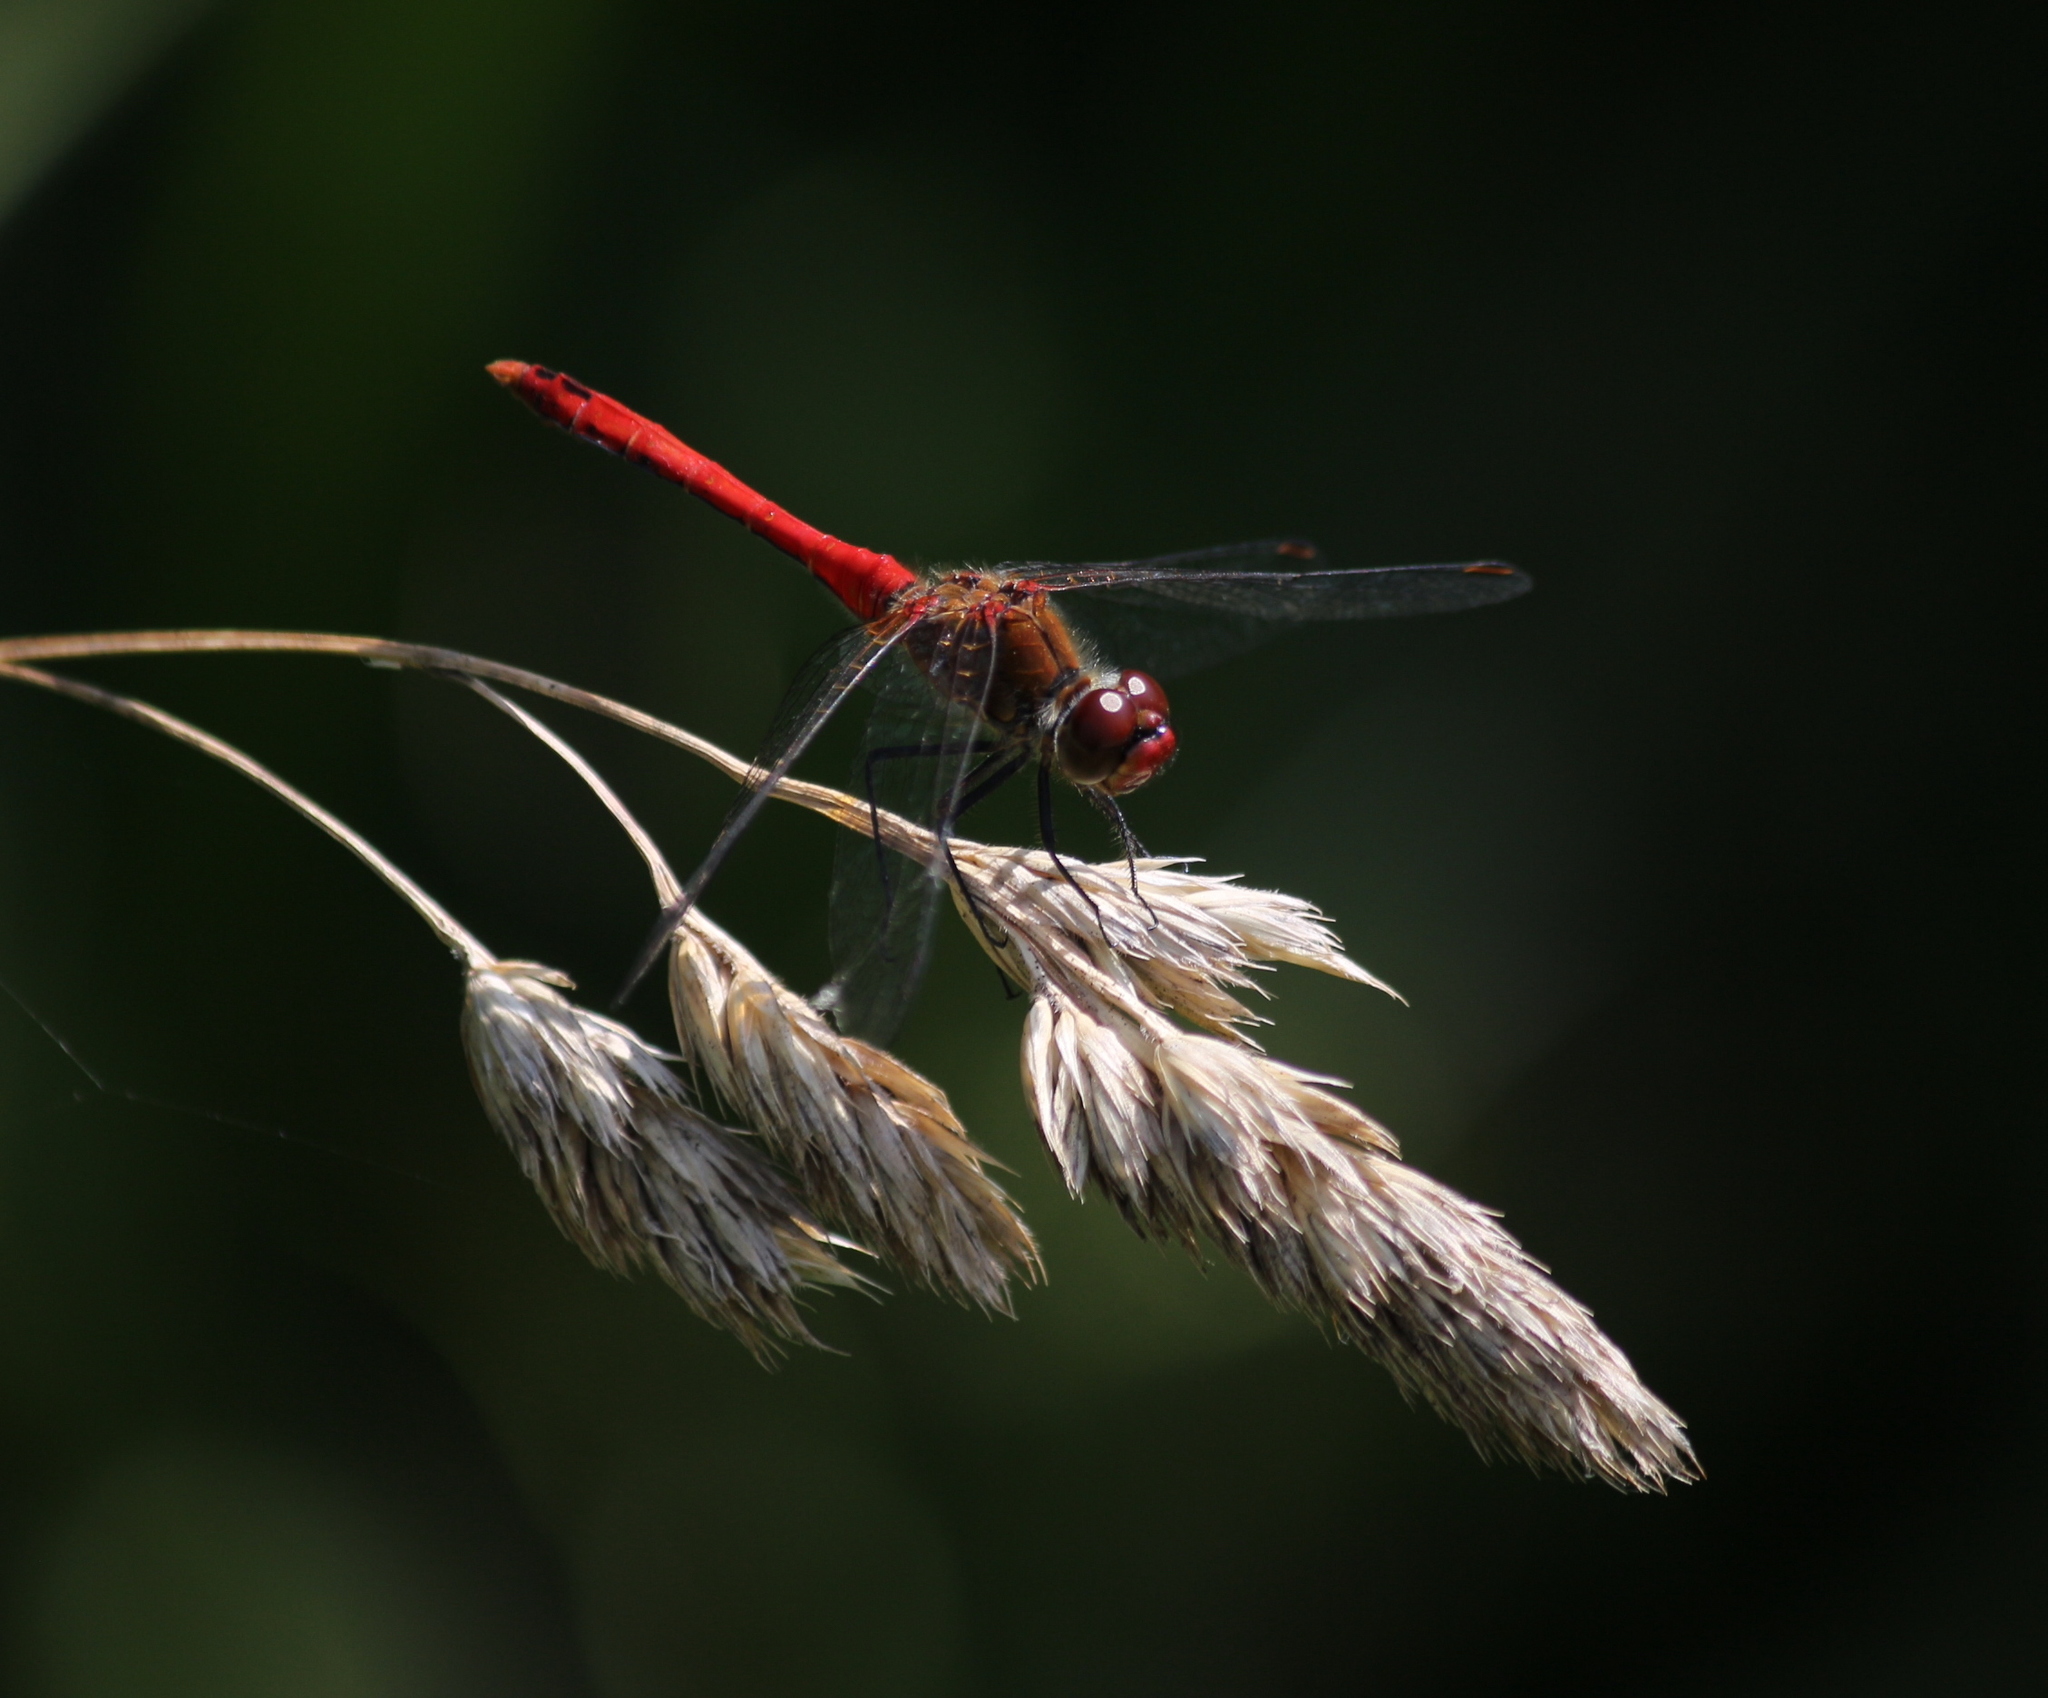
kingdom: Animalia
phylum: Arthropoda
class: Insecta
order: Odonata
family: Libellulidae
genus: Sympetrum
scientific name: Sympetrum sanguineum
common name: Ruddy darter
